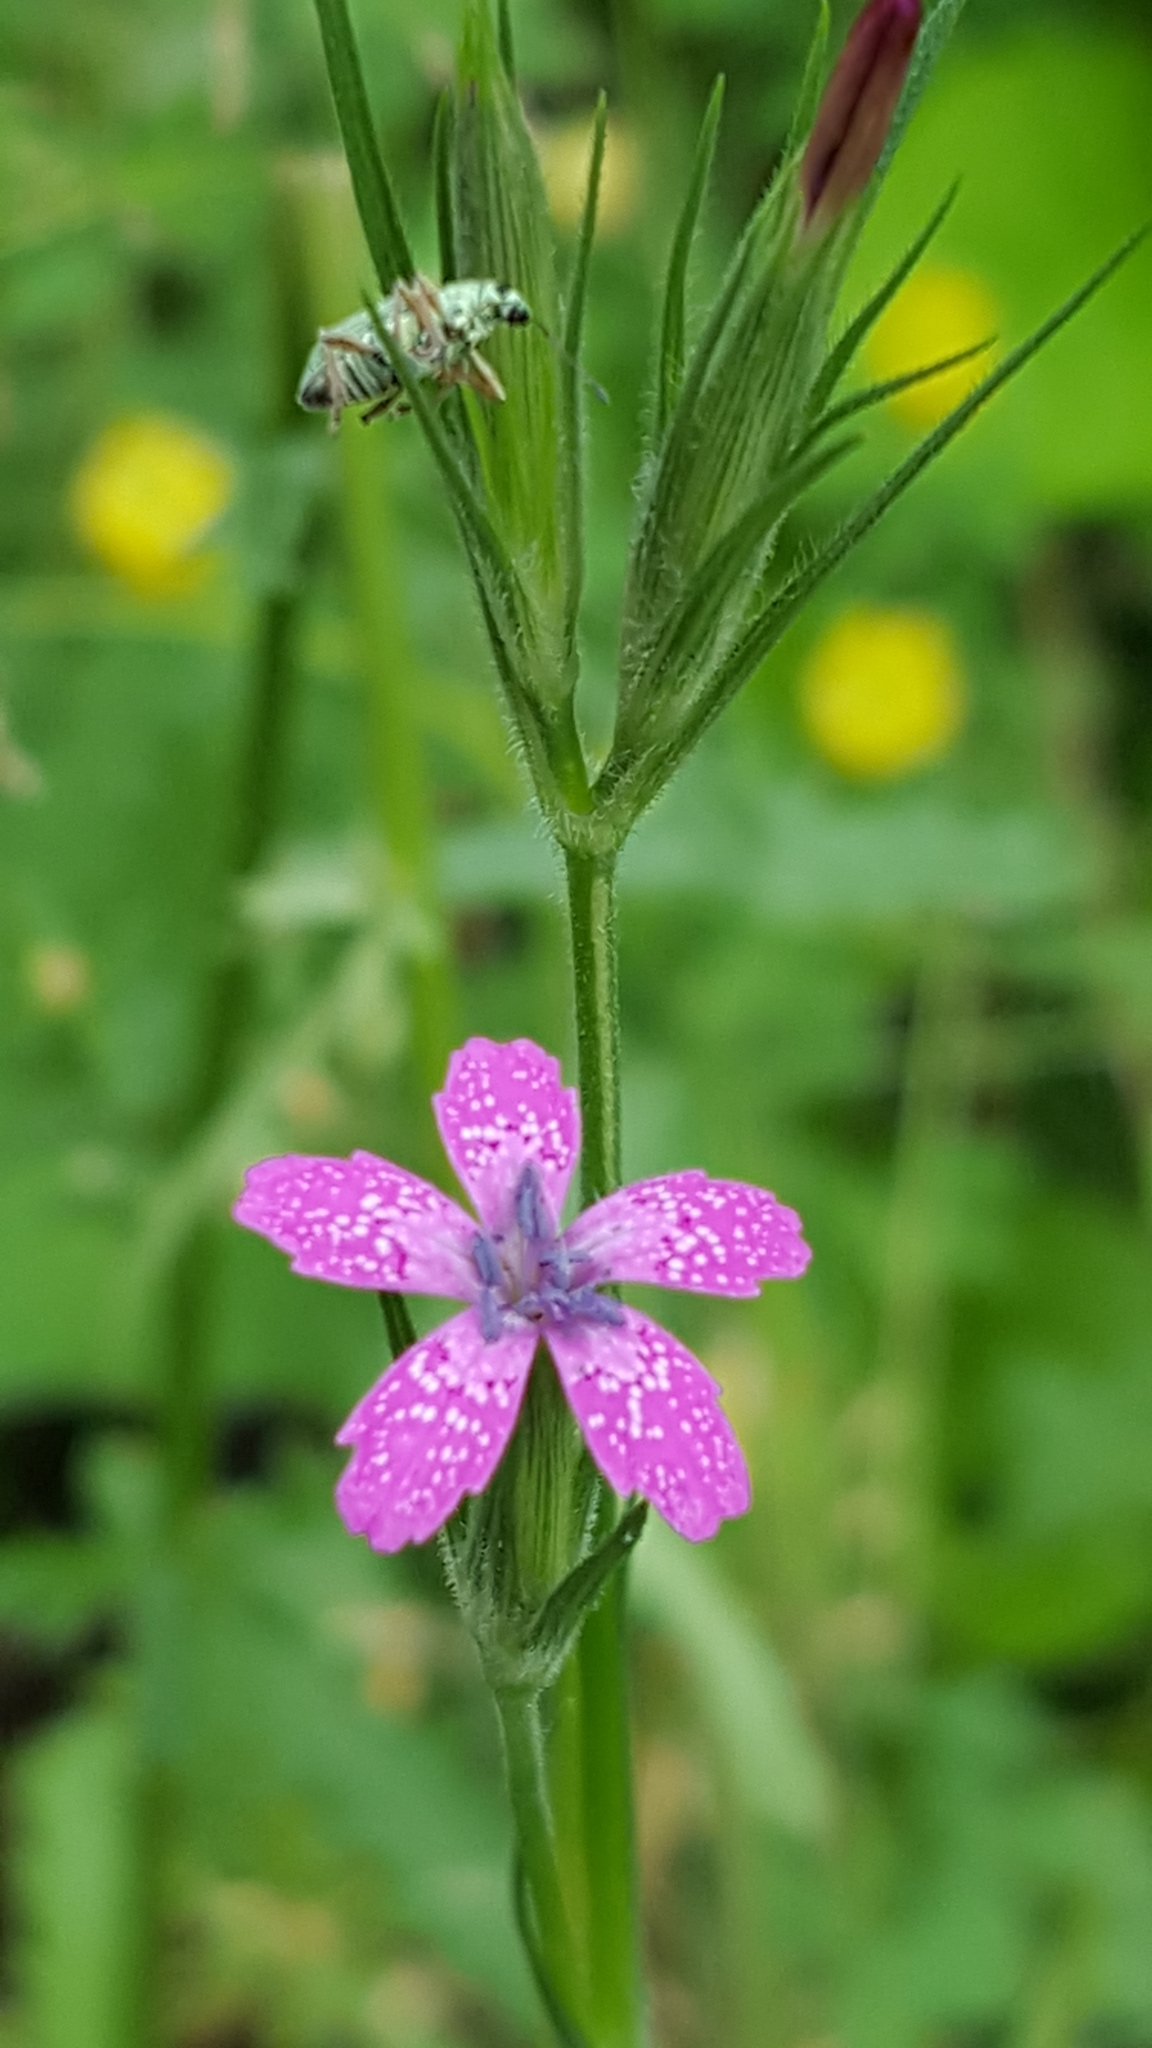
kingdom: Plantae
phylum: Tracheophyta
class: Magnoliopsida
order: Caryophyllales
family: Caryophyllaceae
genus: Dianthus
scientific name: Dianthus armeria
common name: Deptford pink
